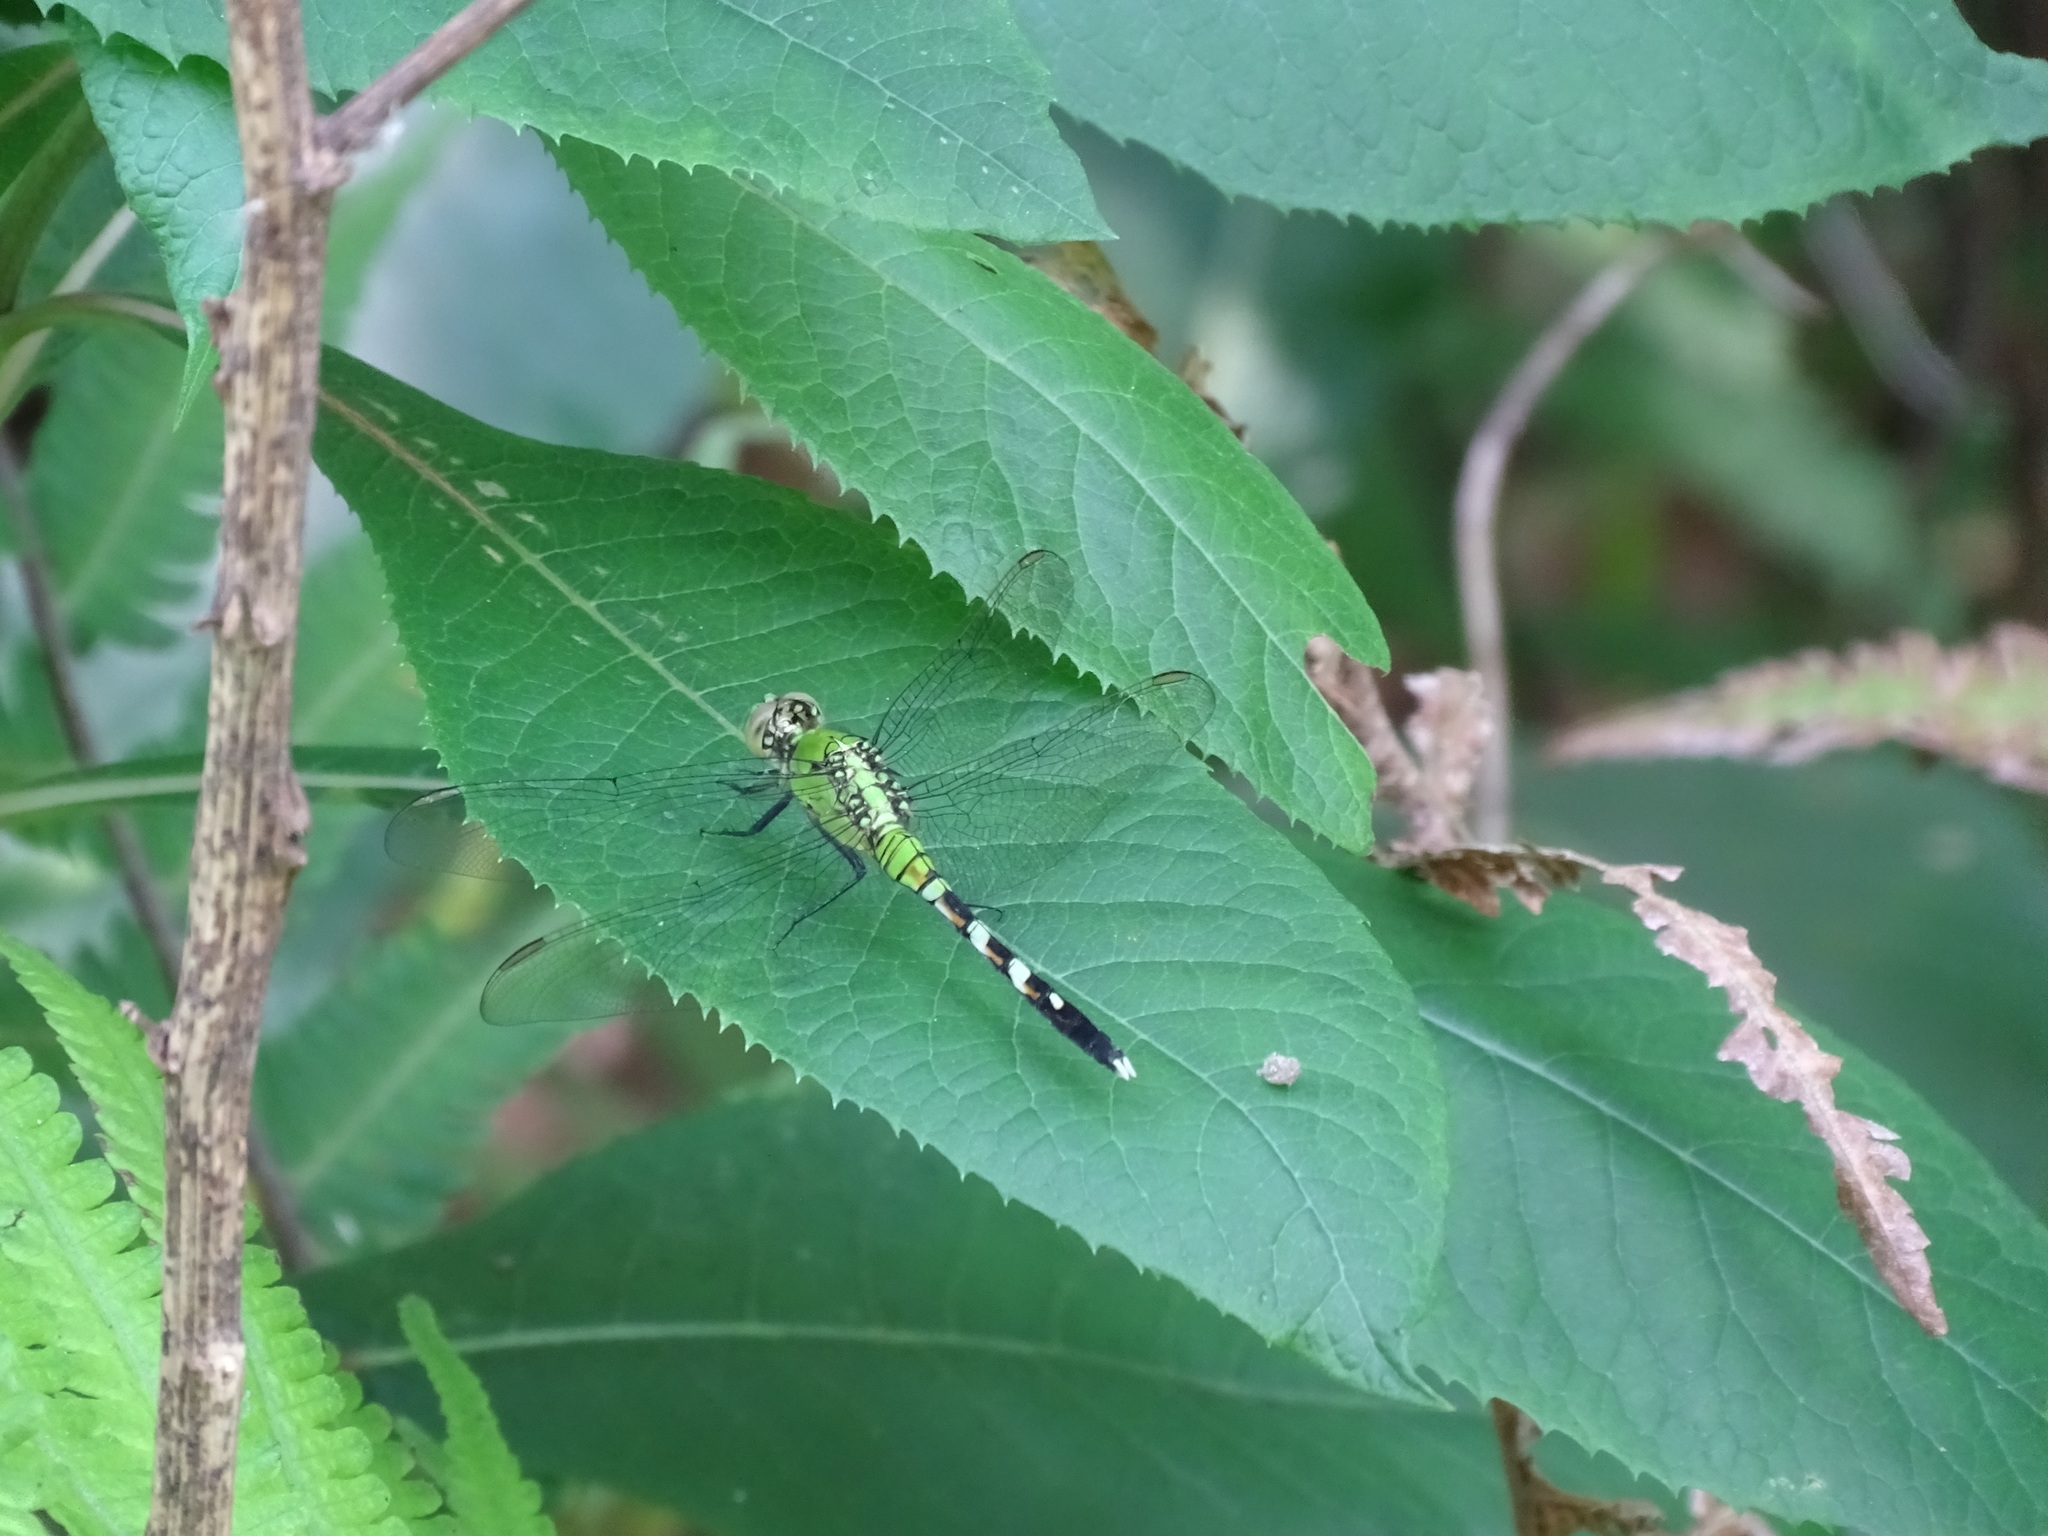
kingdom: Animalia
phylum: Arthropoda
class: Insecta
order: Odonata
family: Libellulidae
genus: Erythemis
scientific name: Erythemis simplicicollis
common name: Eastern pondhawk
